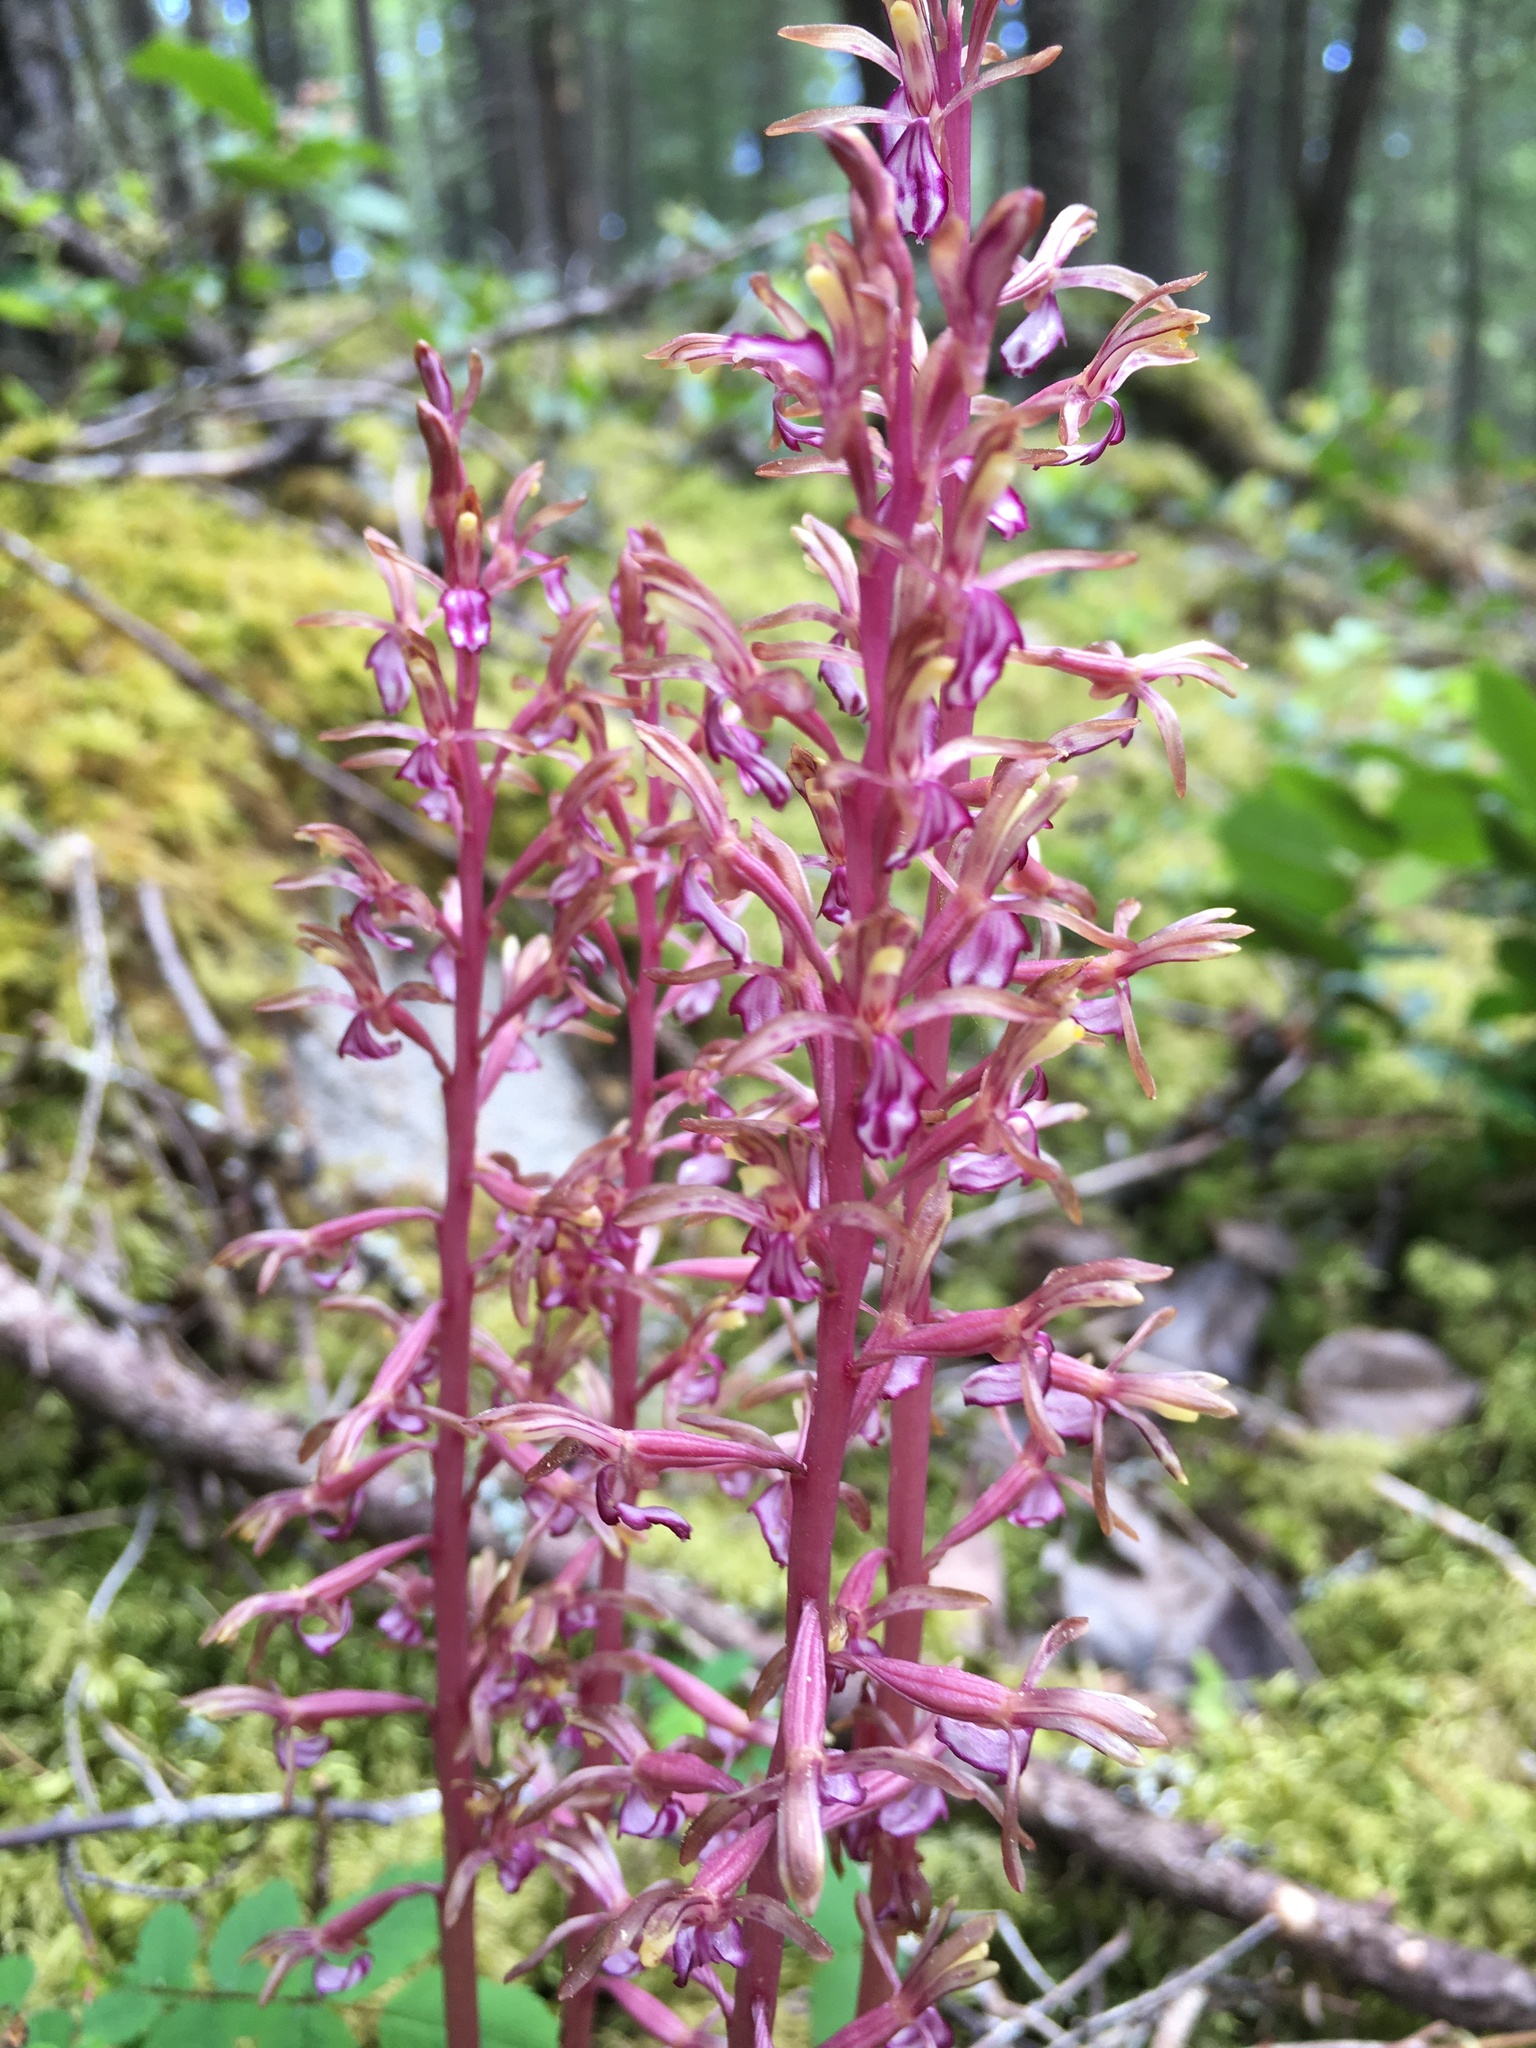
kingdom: Plantae
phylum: Tracheophyta
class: Liliopsida
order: Asparagales
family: Orchidaceae
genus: Corallorhiza
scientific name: Corallorhiza mertensiana
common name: Pacific coralroot
